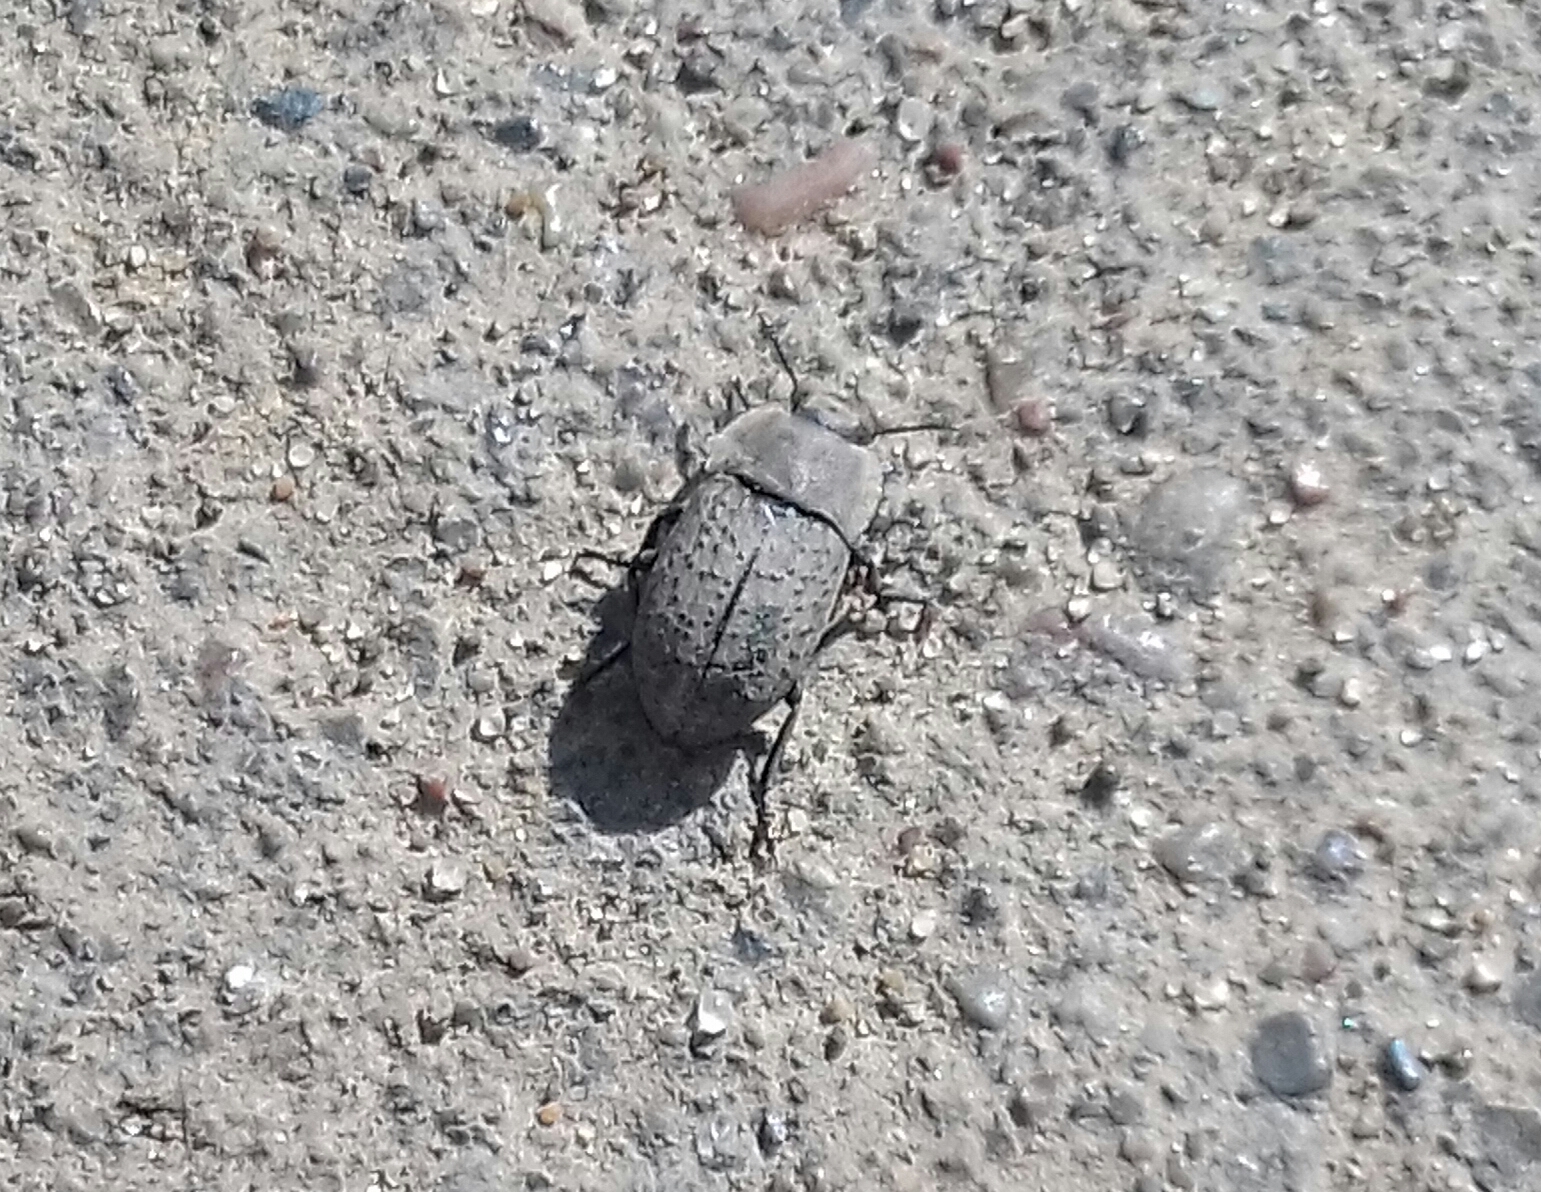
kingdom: Animalia
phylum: Arthropoda
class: Insecta
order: Coleoptera
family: Tenebrionidae
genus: Opatrum
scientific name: Opatrum sabulosum
